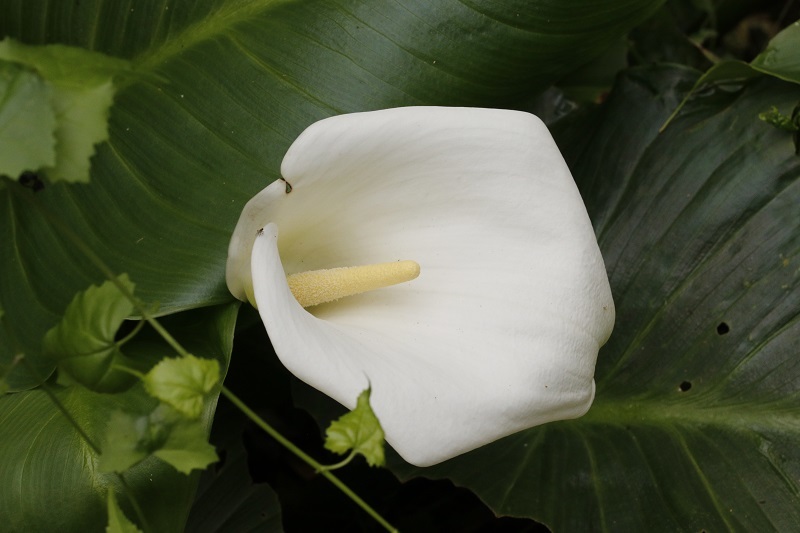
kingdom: Plantae
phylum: Tracheophyta
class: Liliopsida
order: Alismatales
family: Araceae
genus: Zantedeschia
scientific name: Zantedeschia aethiopica
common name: Altar-lily
